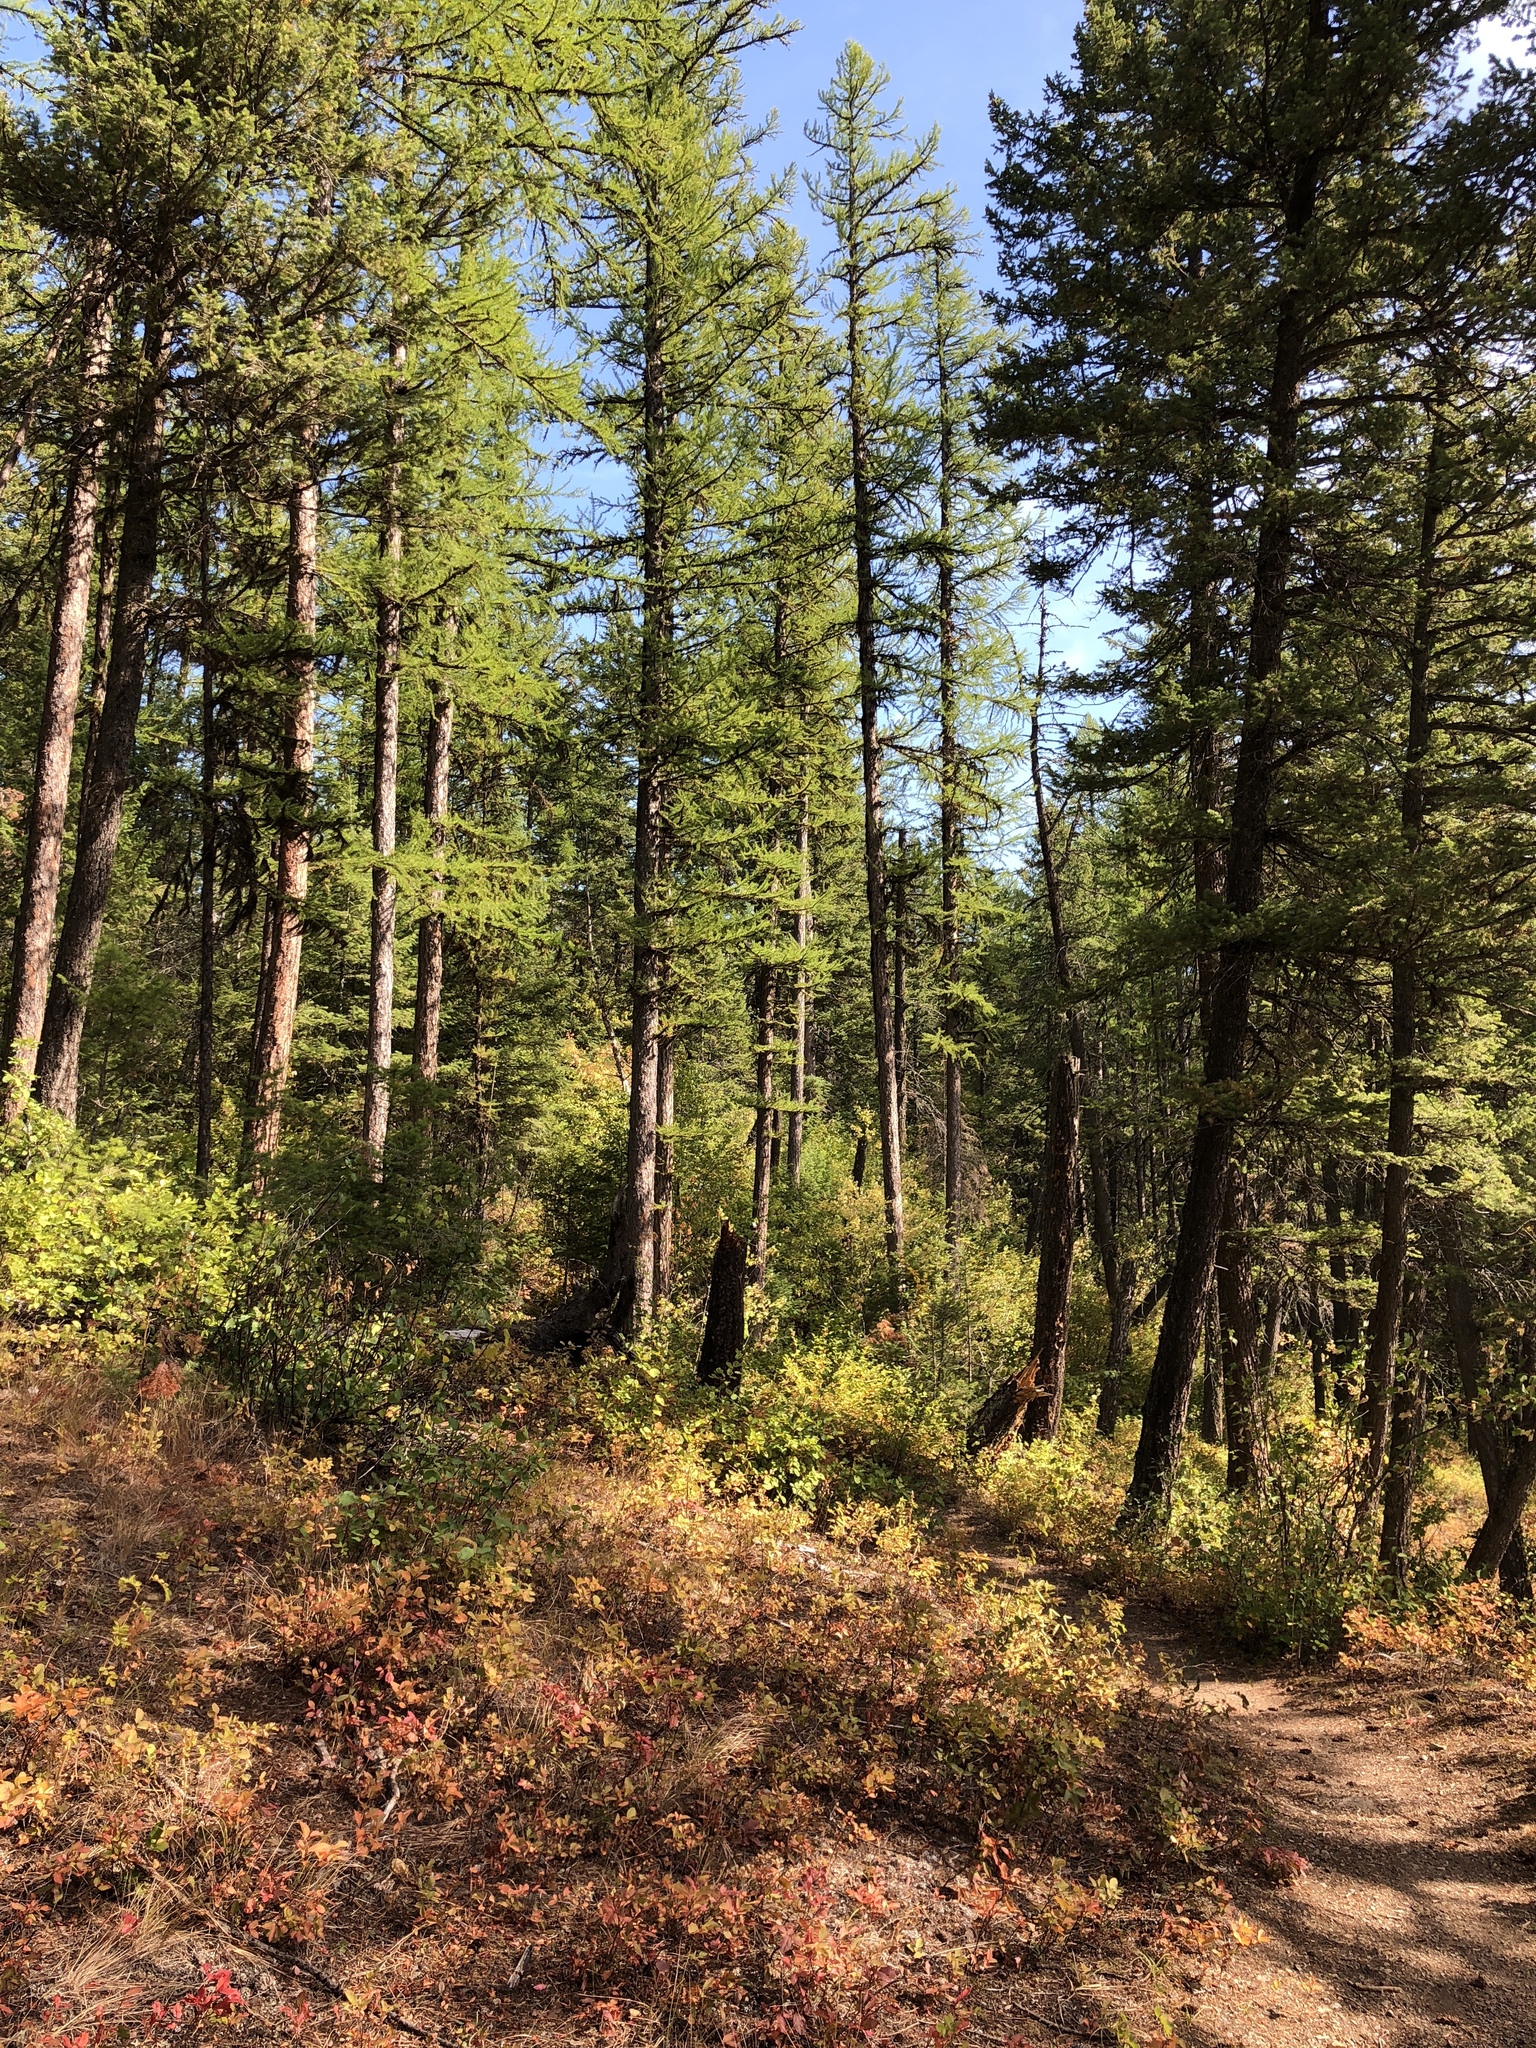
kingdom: Plantae
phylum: Tracheophyta
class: Pinopsida
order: Pinales
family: Pinaceae
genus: Larix
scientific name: Larix occidentalis
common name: Western larch
